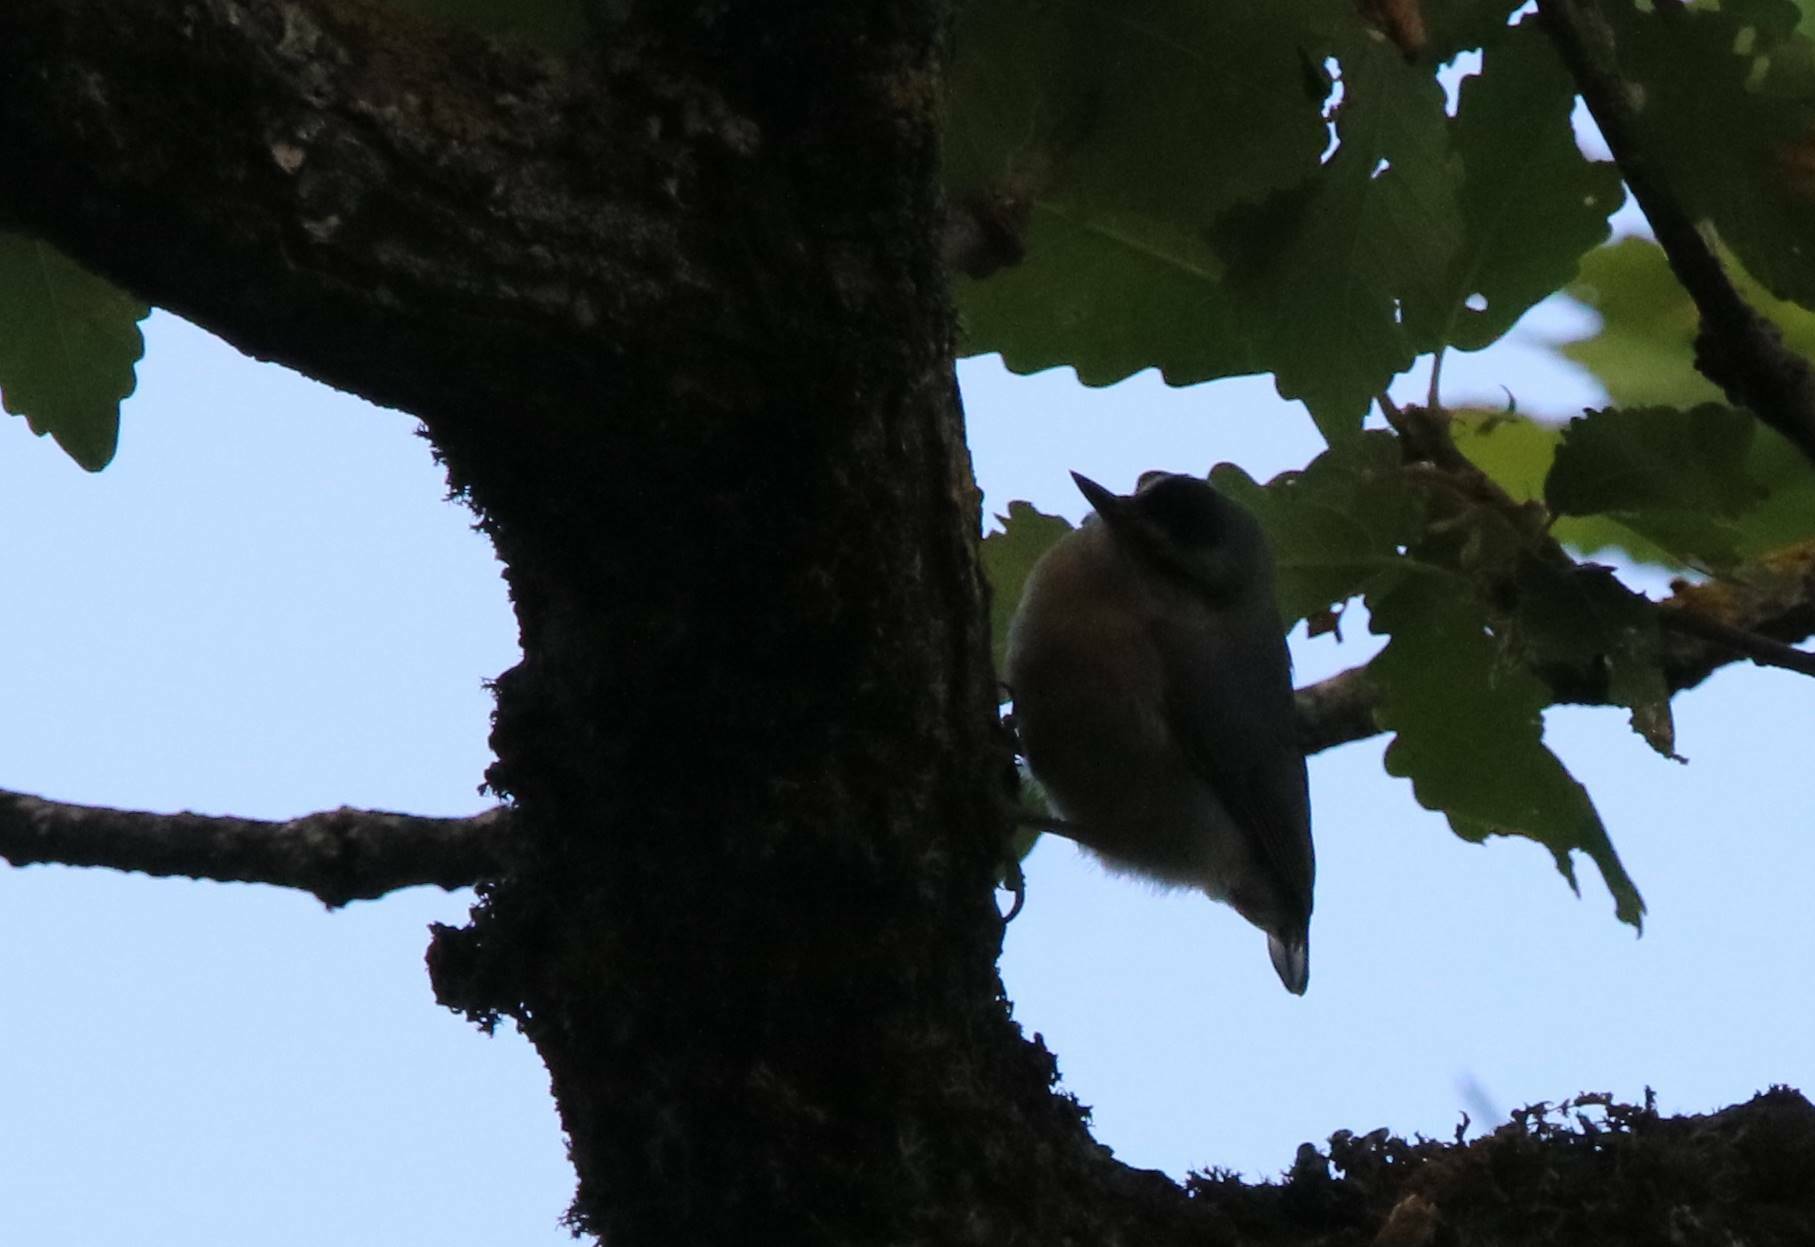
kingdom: Animalia
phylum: Chordata
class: Aves
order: Passeriformes
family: Sittidae
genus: Sitta
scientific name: Sitta ledanti
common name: Algerian nuthatch
